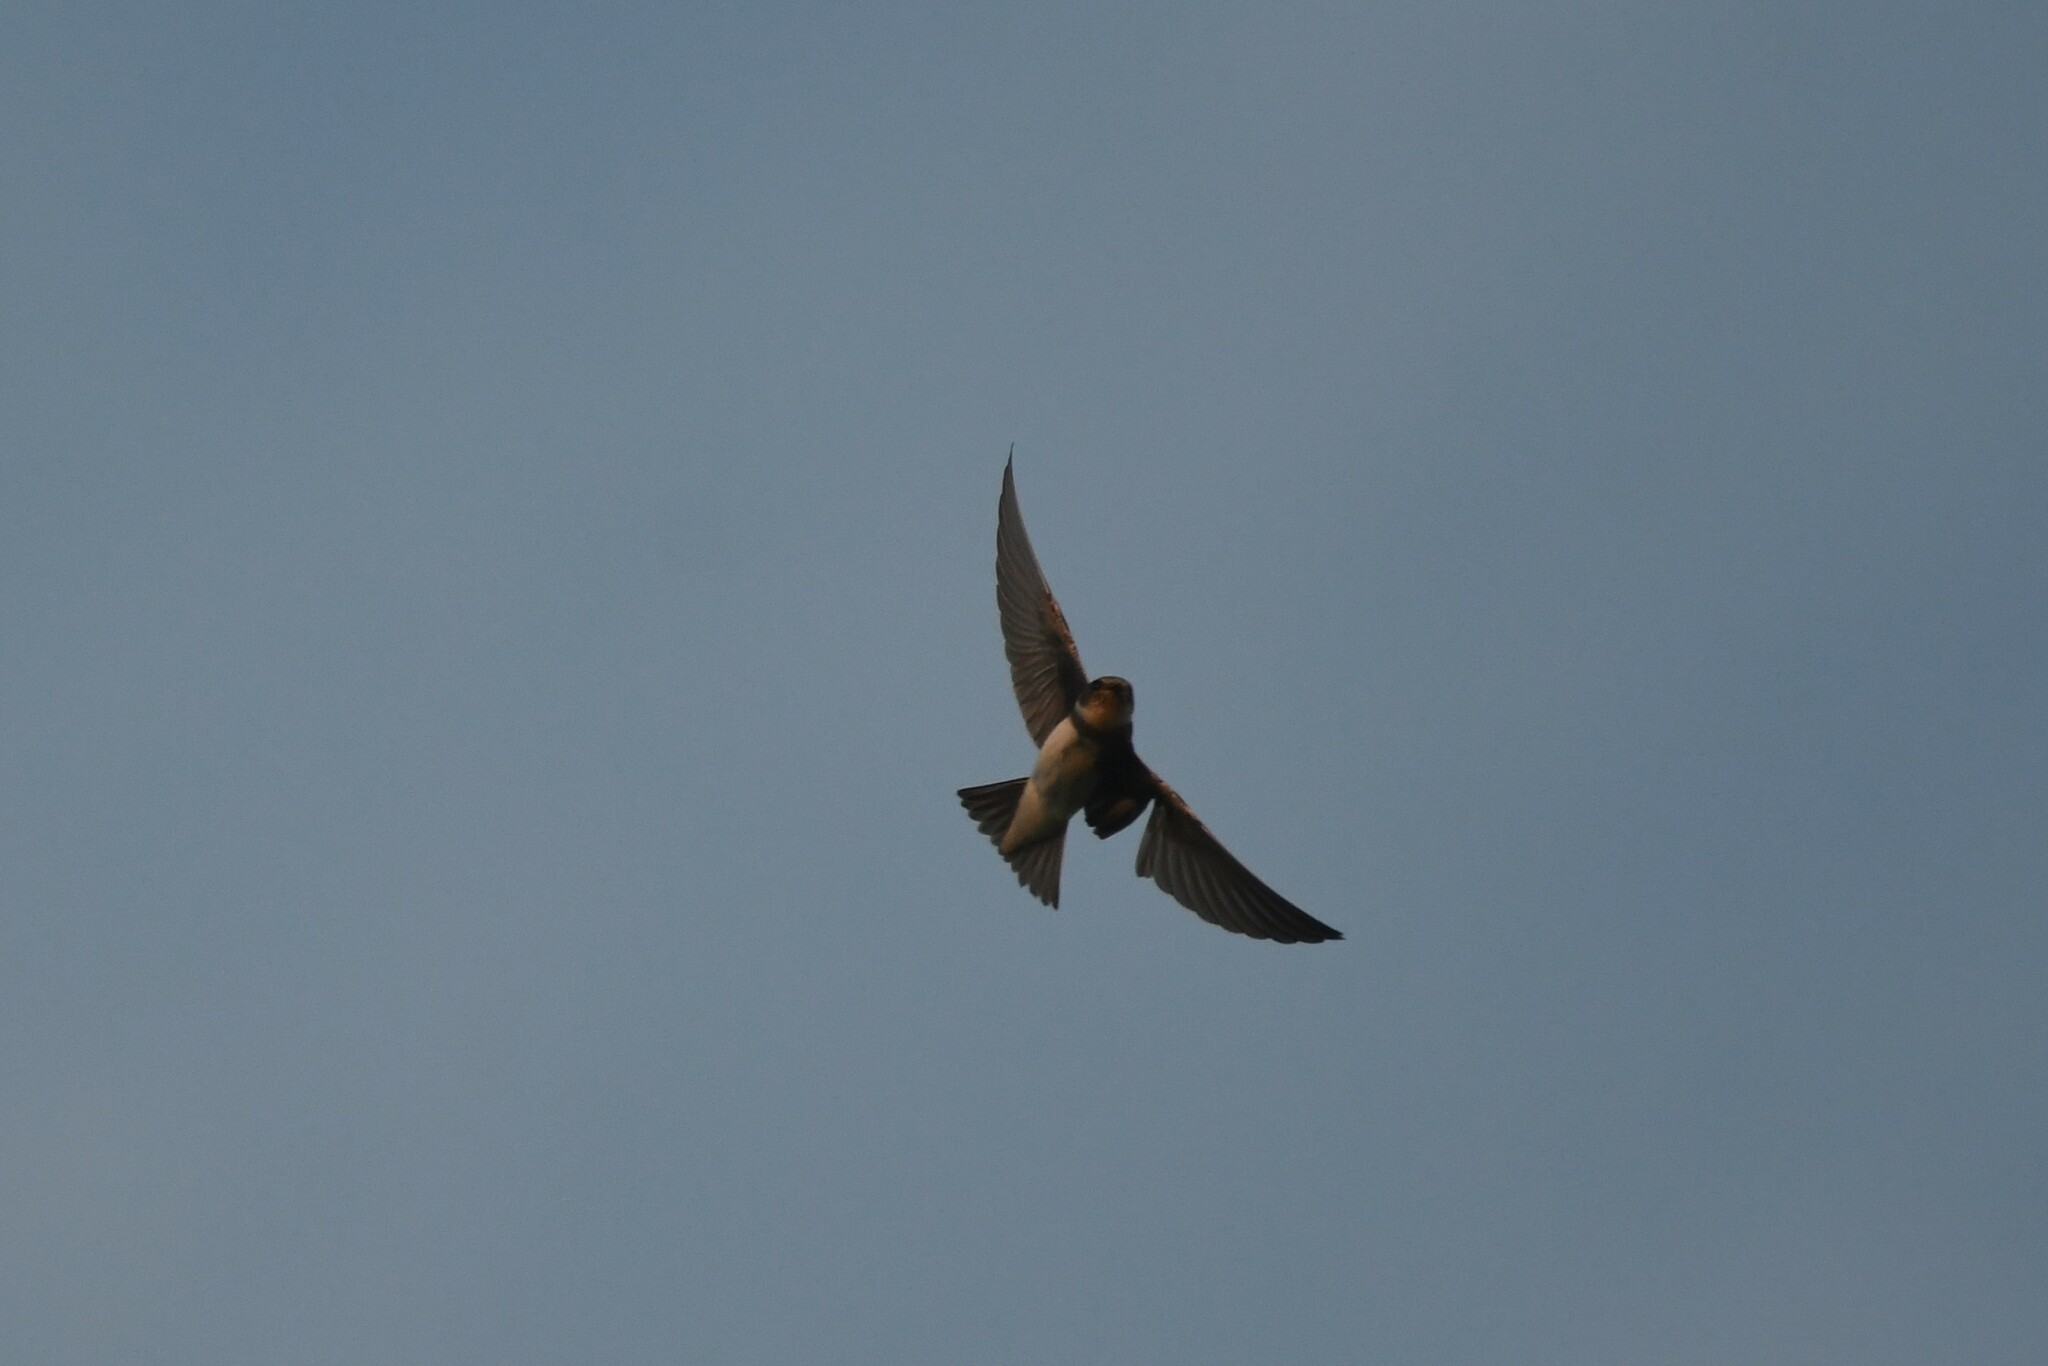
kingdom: Animalia
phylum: Chordata
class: Aves
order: Passeriformes
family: Hirundinidae
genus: Petrochelidon
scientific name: Petrochelidon pyrrhonota
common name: American cliff swallow
